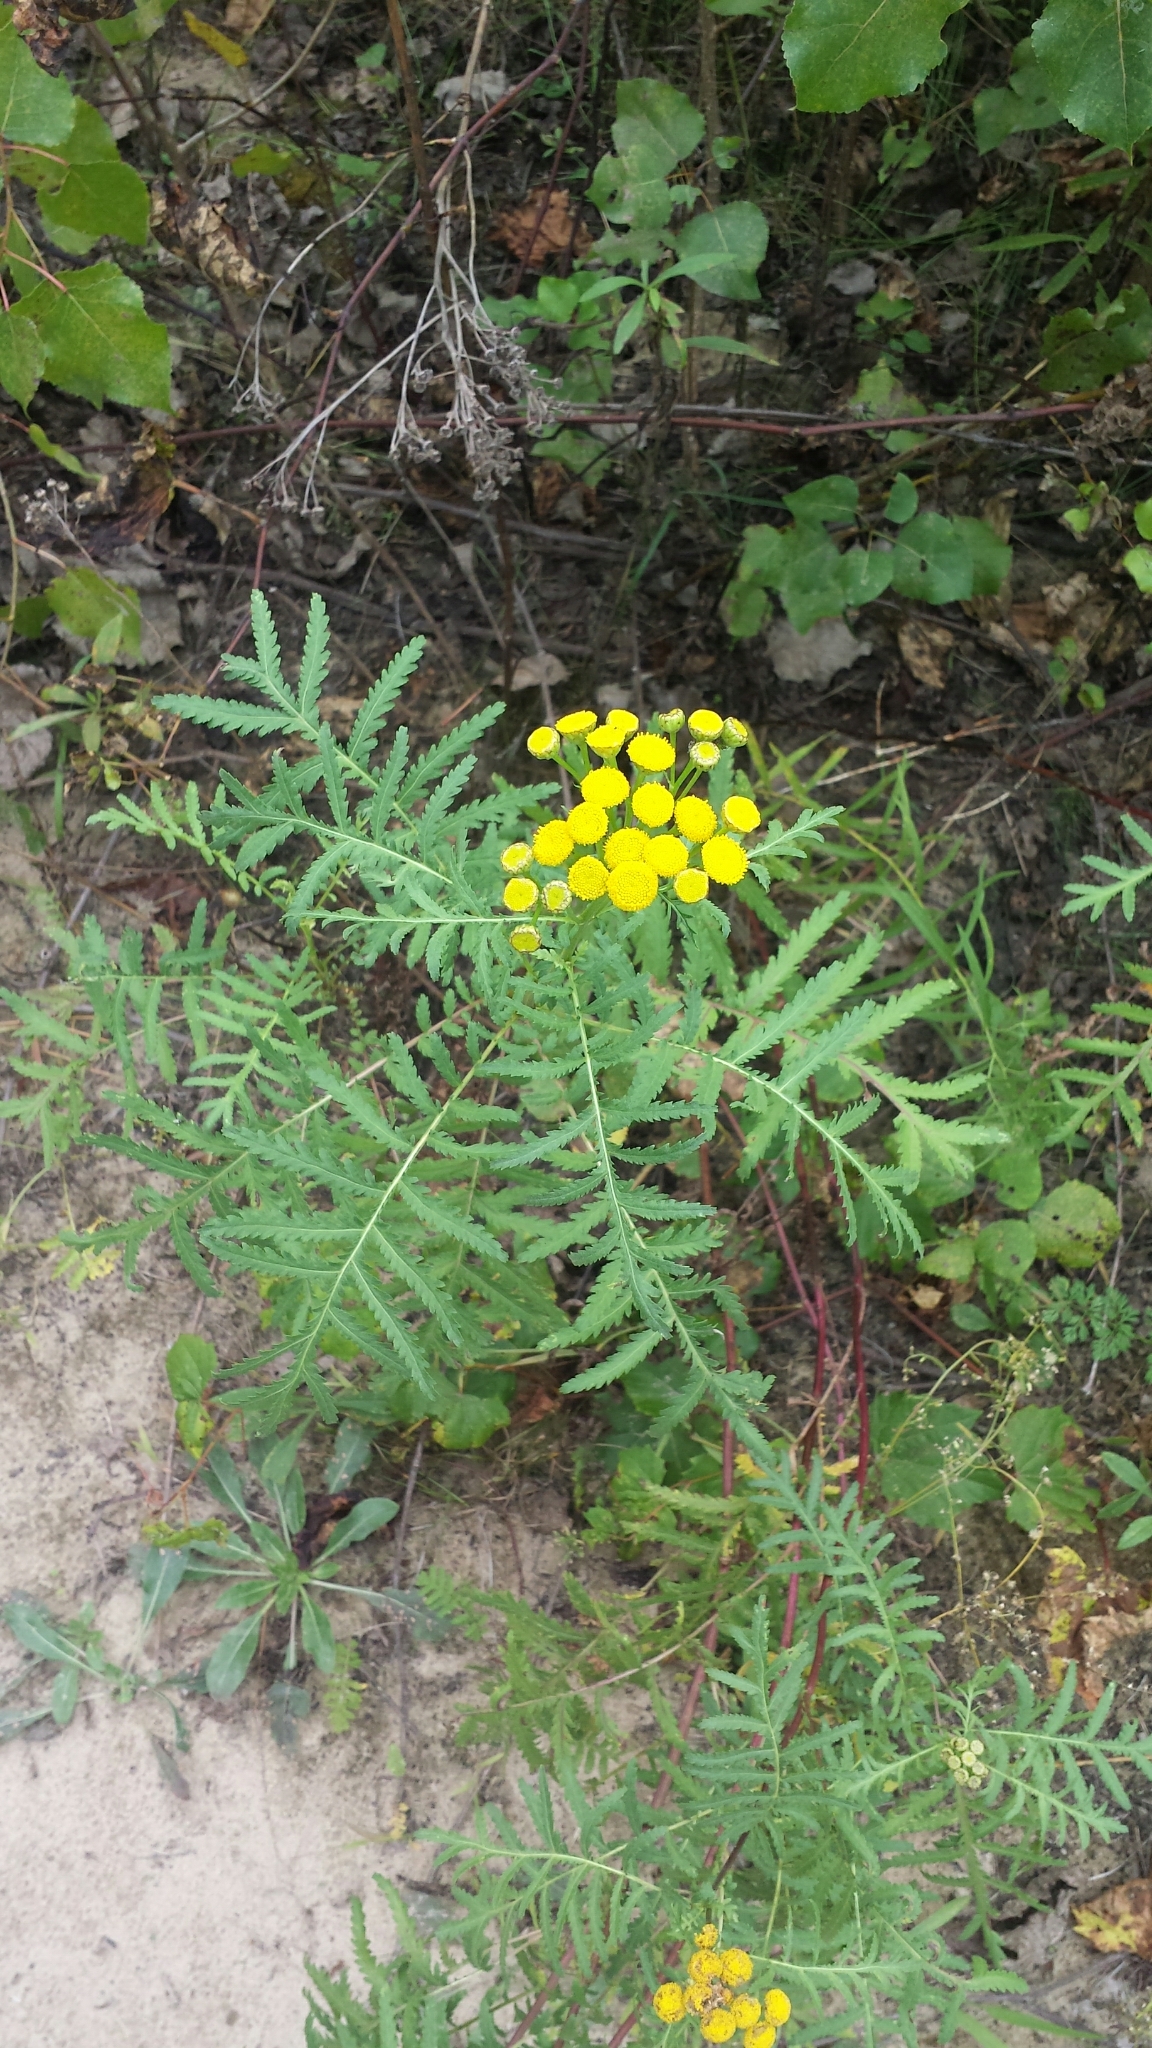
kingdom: Plantae
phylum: Tracheophyta
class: Magnoliopsida
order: Asterales
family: Asteraceae
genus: Tanacetum
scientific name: Tanacetum vulgare
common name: Common tansy
